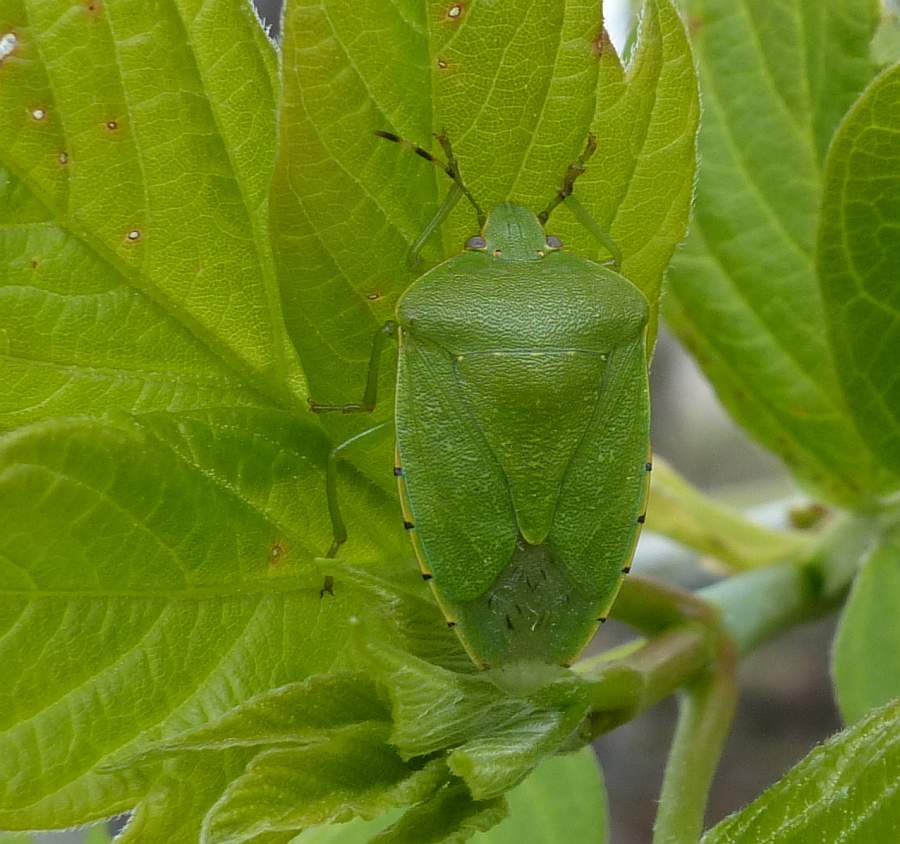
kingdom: Animalia
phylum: Arthropoda
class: Insecta
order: Hemiptera
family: Pentatomidae
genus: Chinavia
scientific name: Chinavia hilaris
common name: Green stink bug
